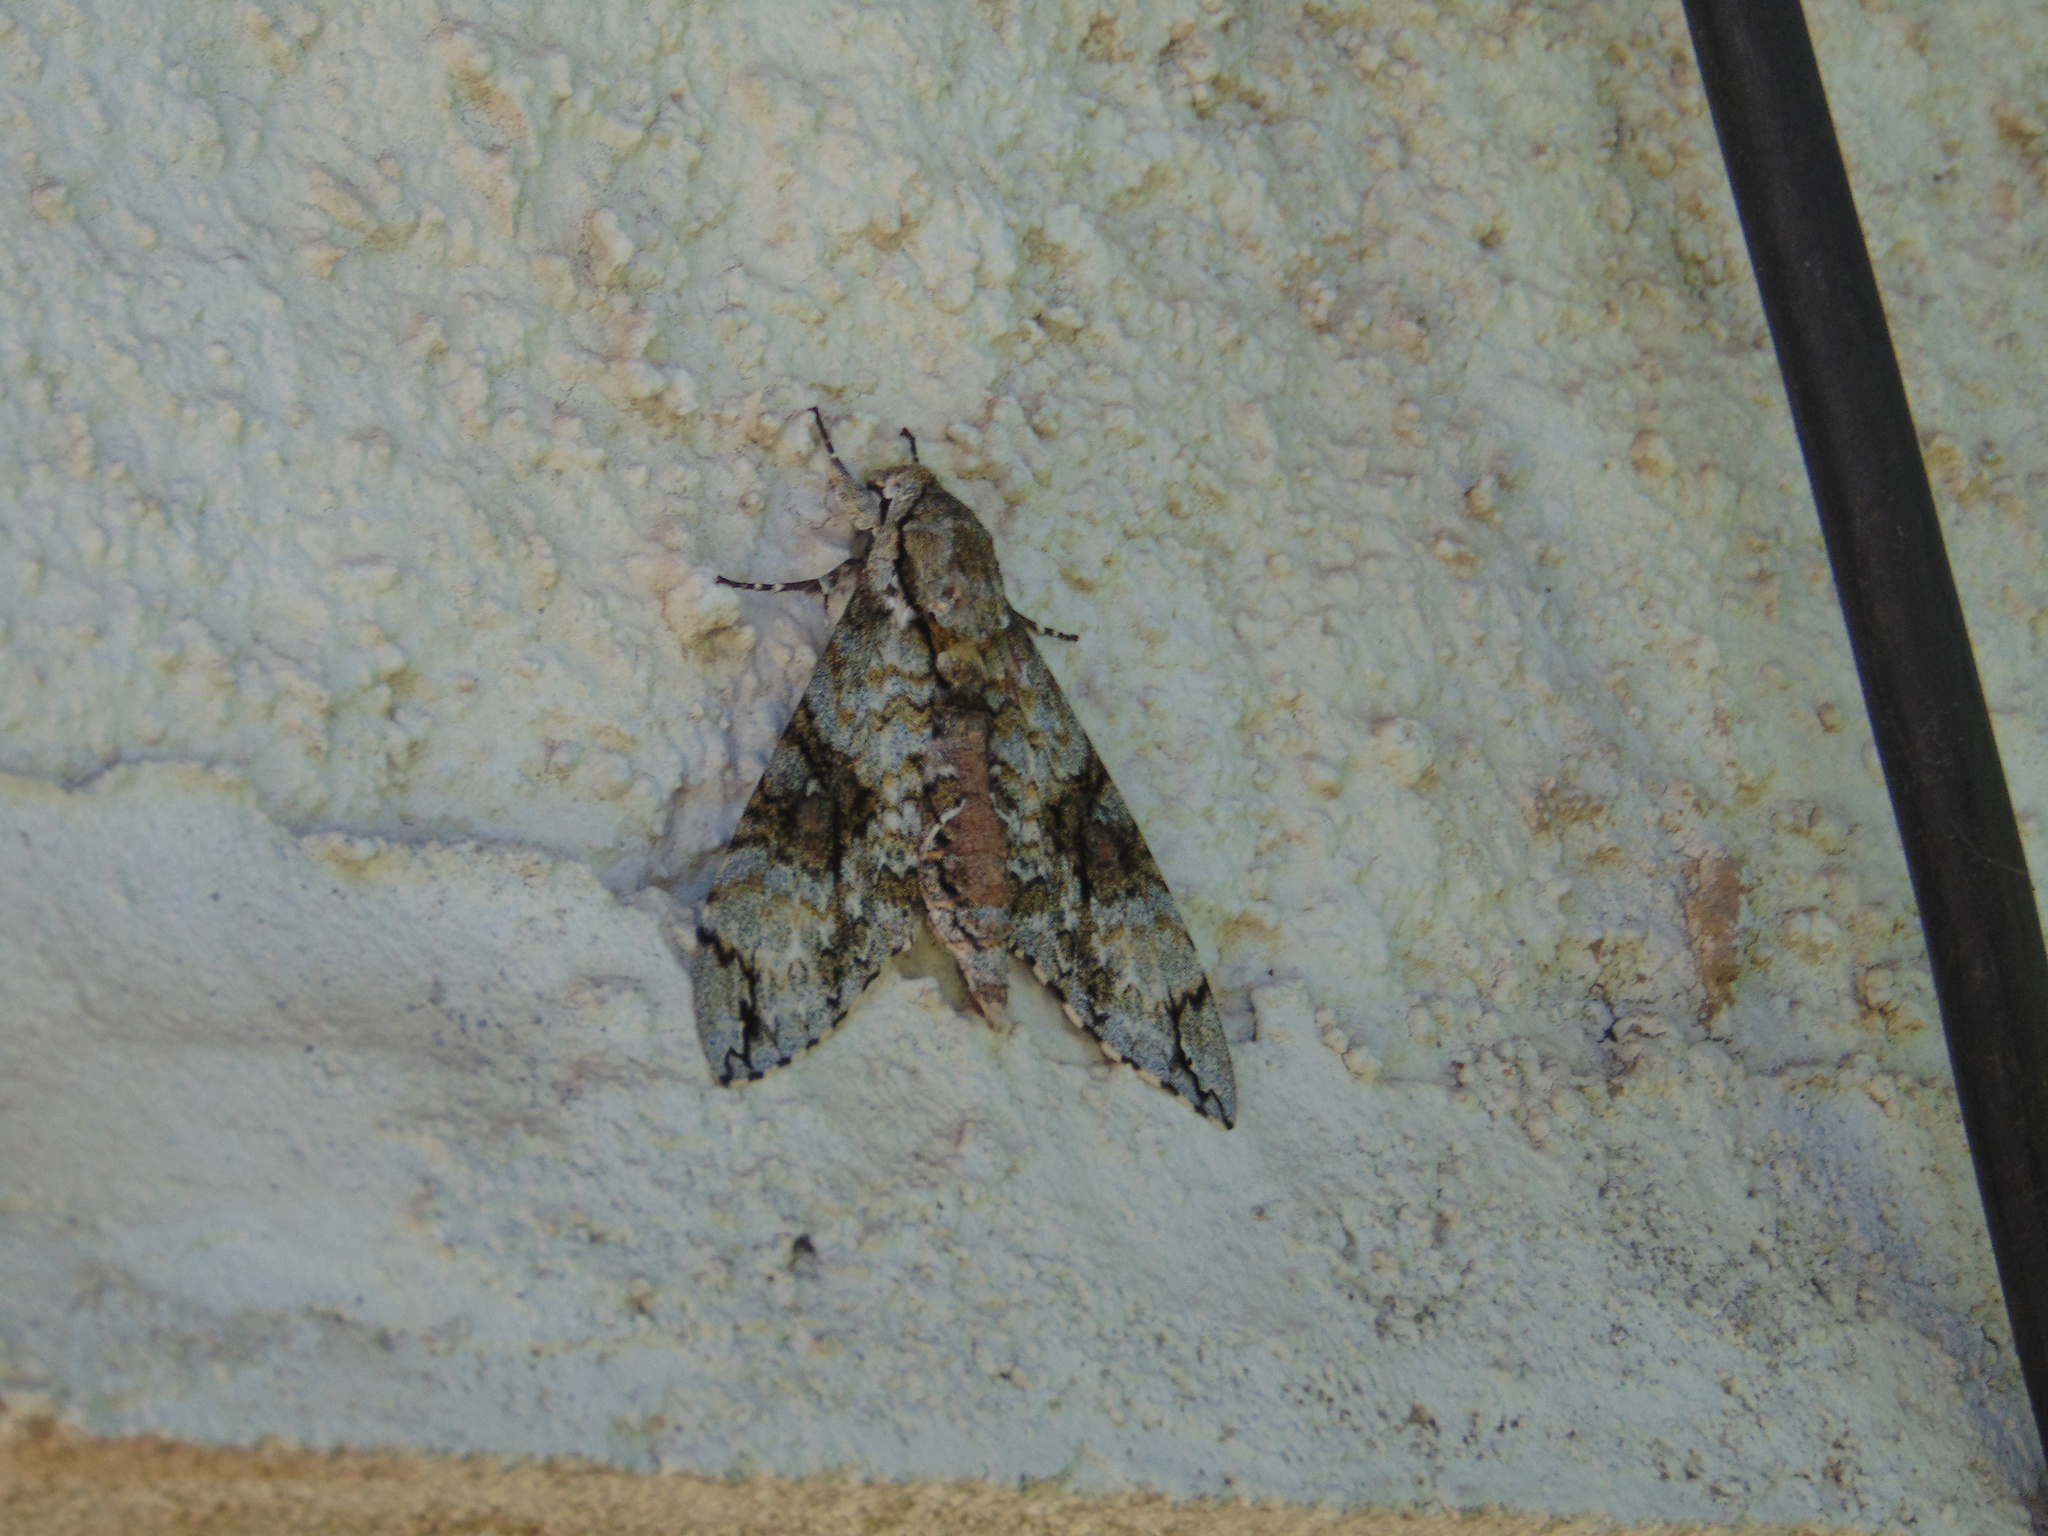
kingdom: Animalia
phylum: Arthropoda
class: Insecta
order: Lepidoptera
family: Sphingidae
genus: Manduca
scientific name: Manduca florestan
